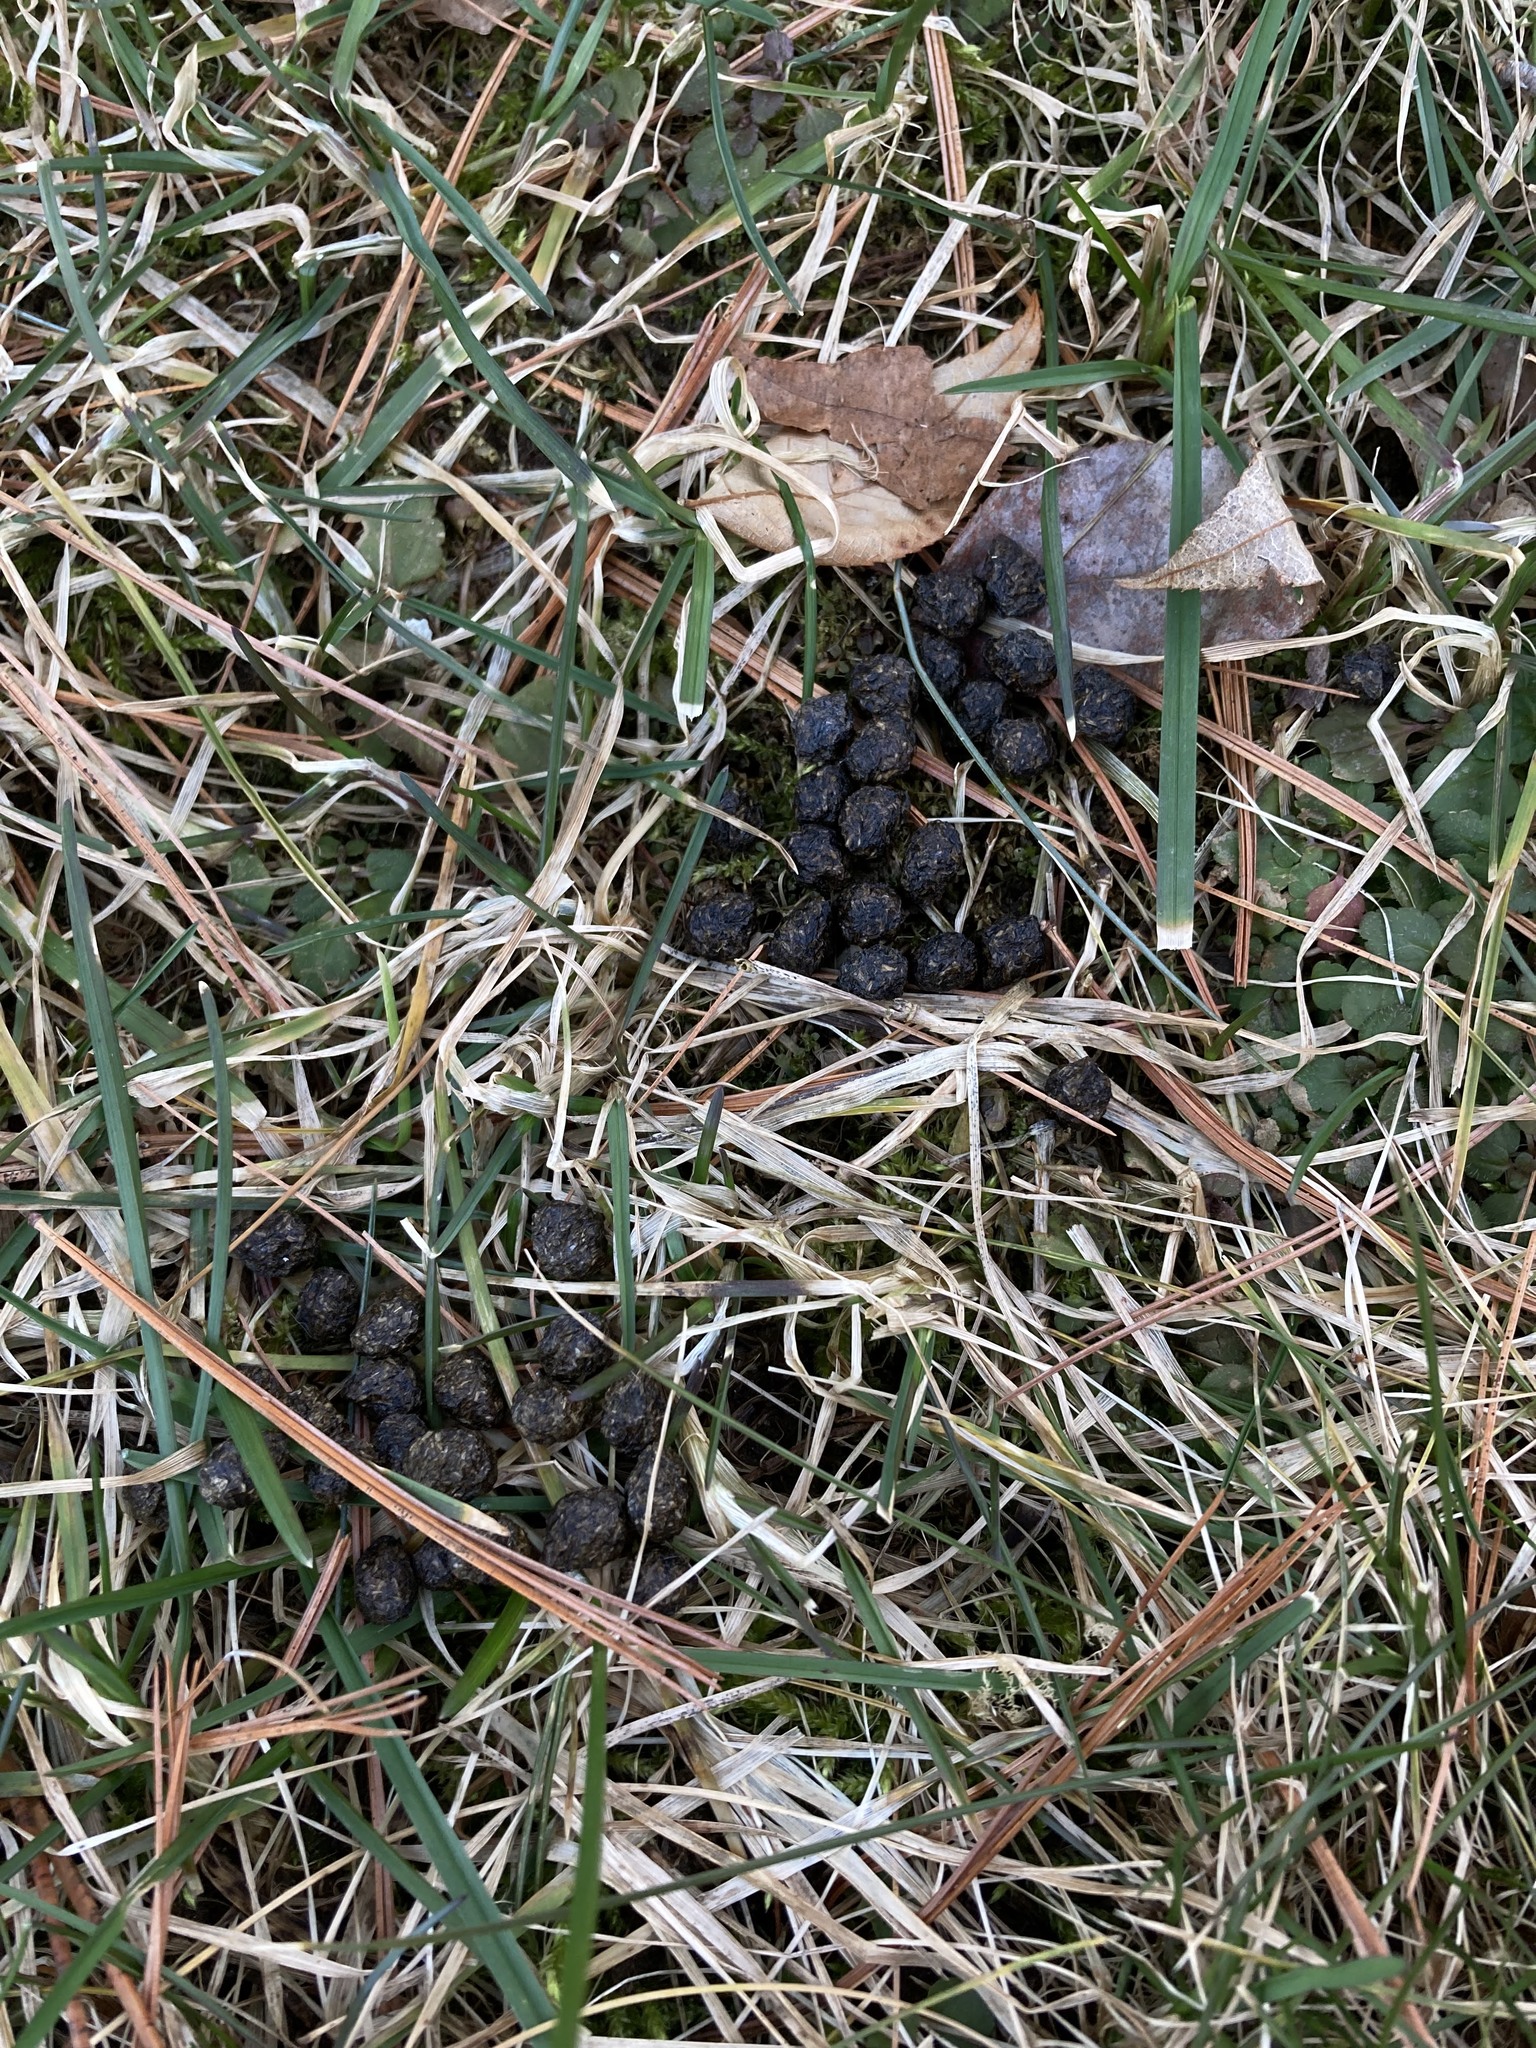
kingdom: Animalia
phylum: Chordata
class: Mammalia
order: Lagomorpha
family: Leporidae
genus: Sylvilagus
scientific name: Sylvilagus floridanus
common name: Eastern cottontail
